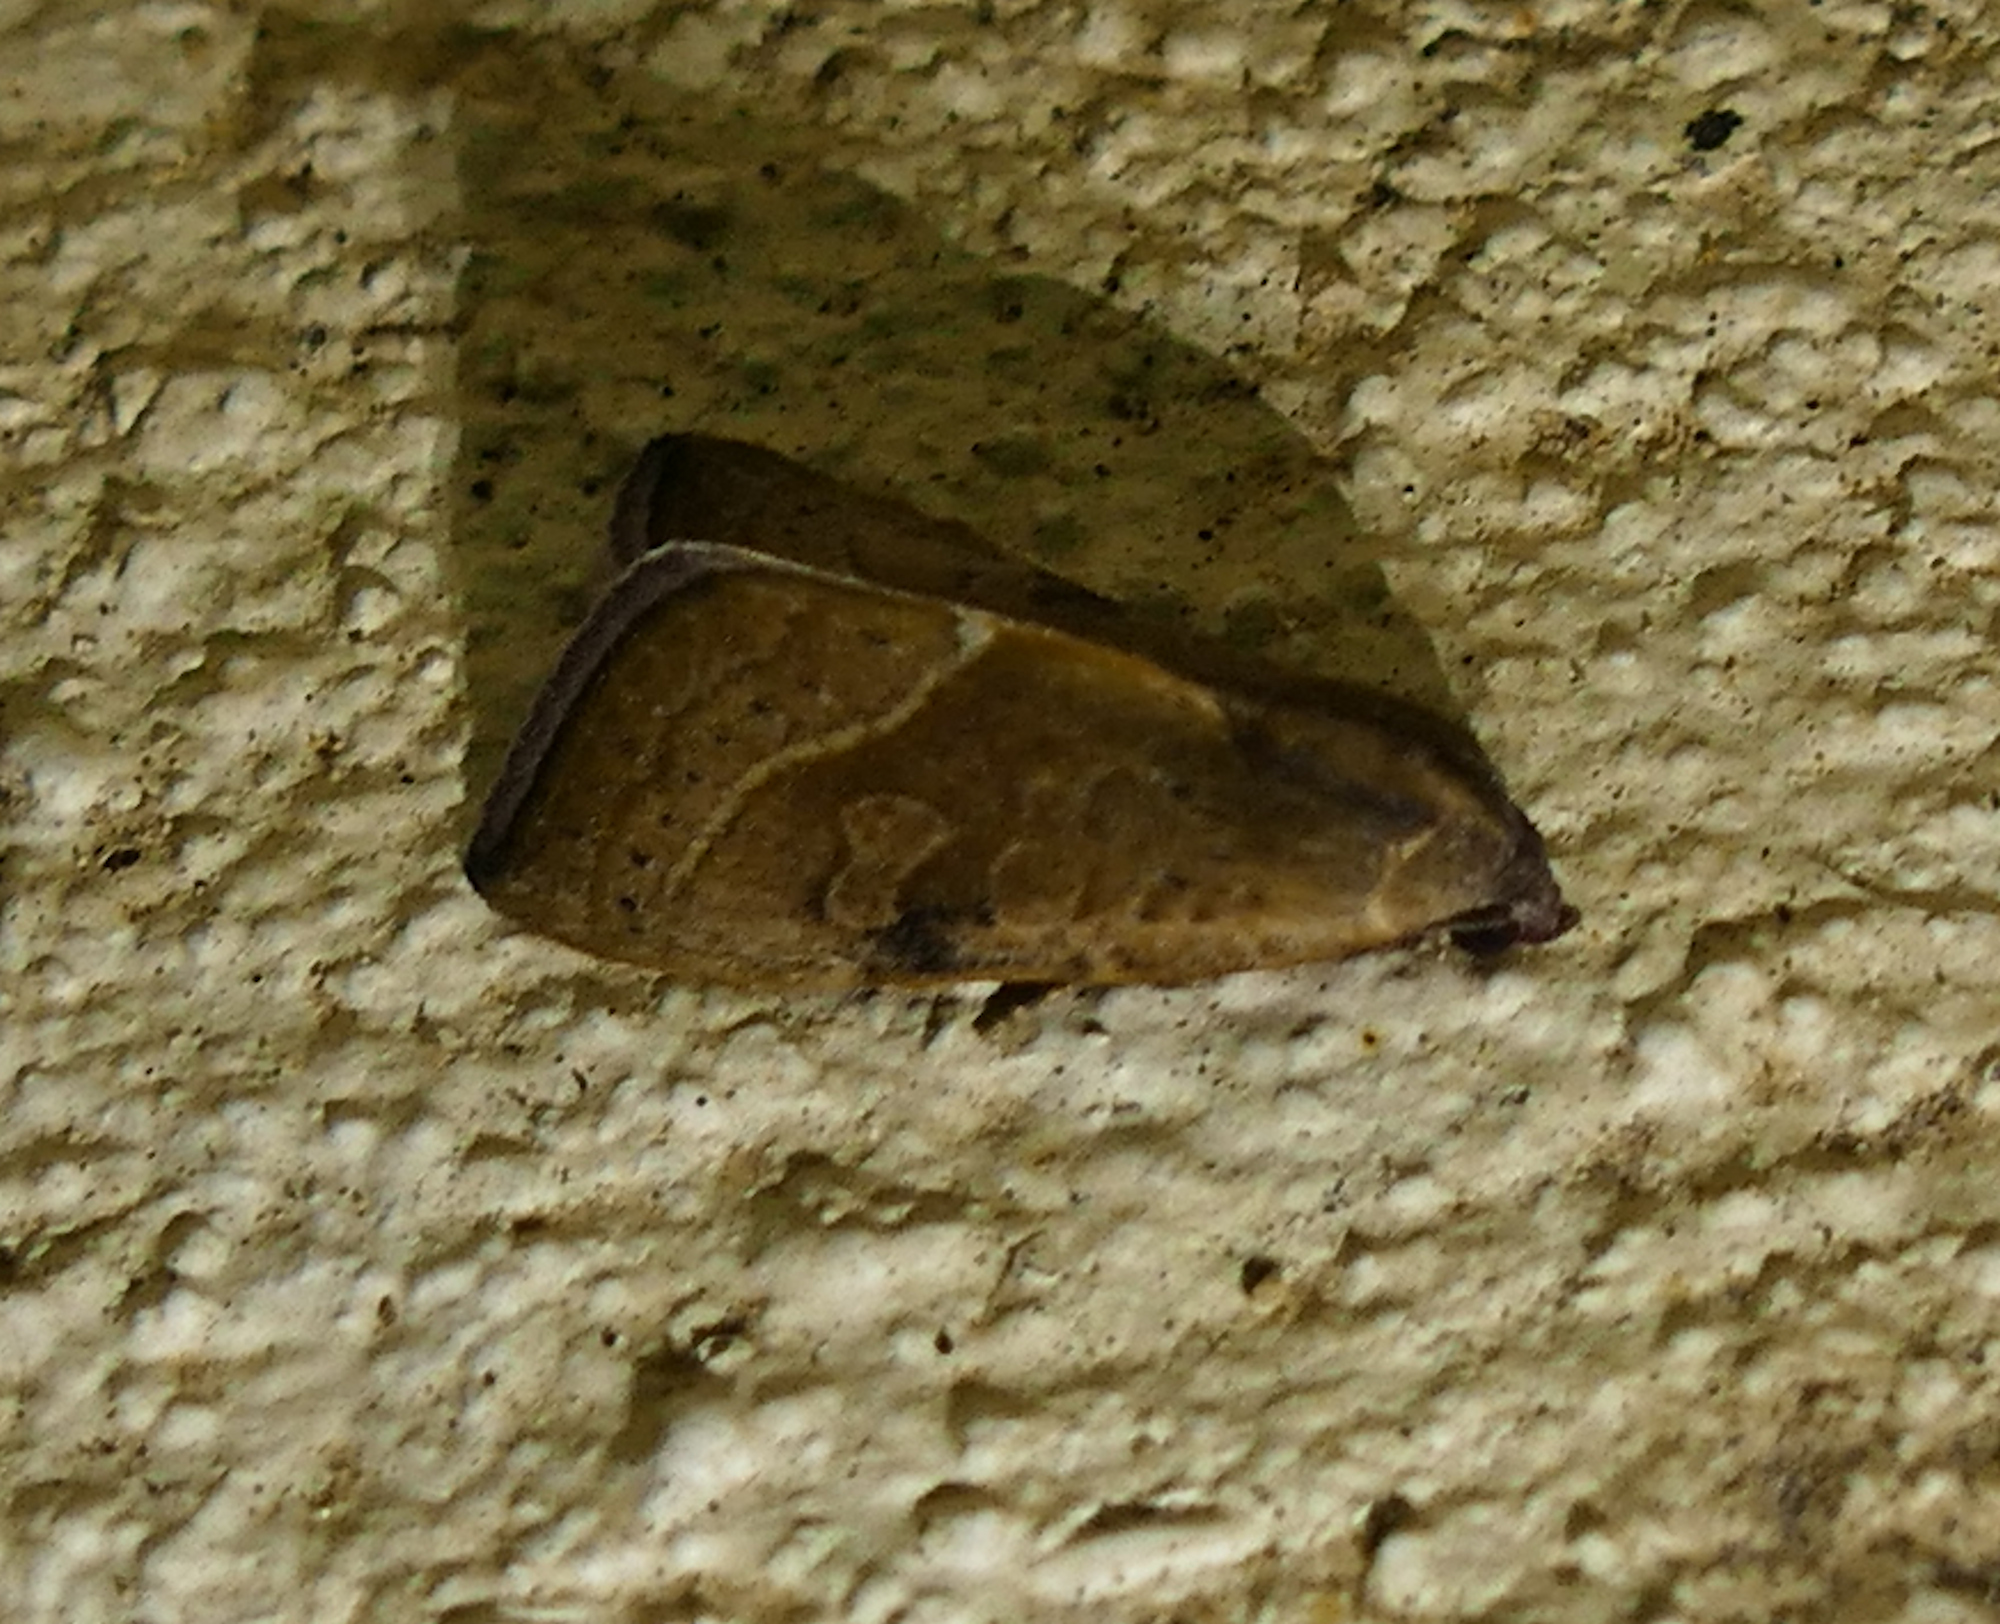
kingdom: Animalia
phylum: Arthropoda
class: Insecta
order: Lepidoptera
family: Noctuidae
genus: Galgula
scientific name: Galgula partita
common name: Wedgeling
